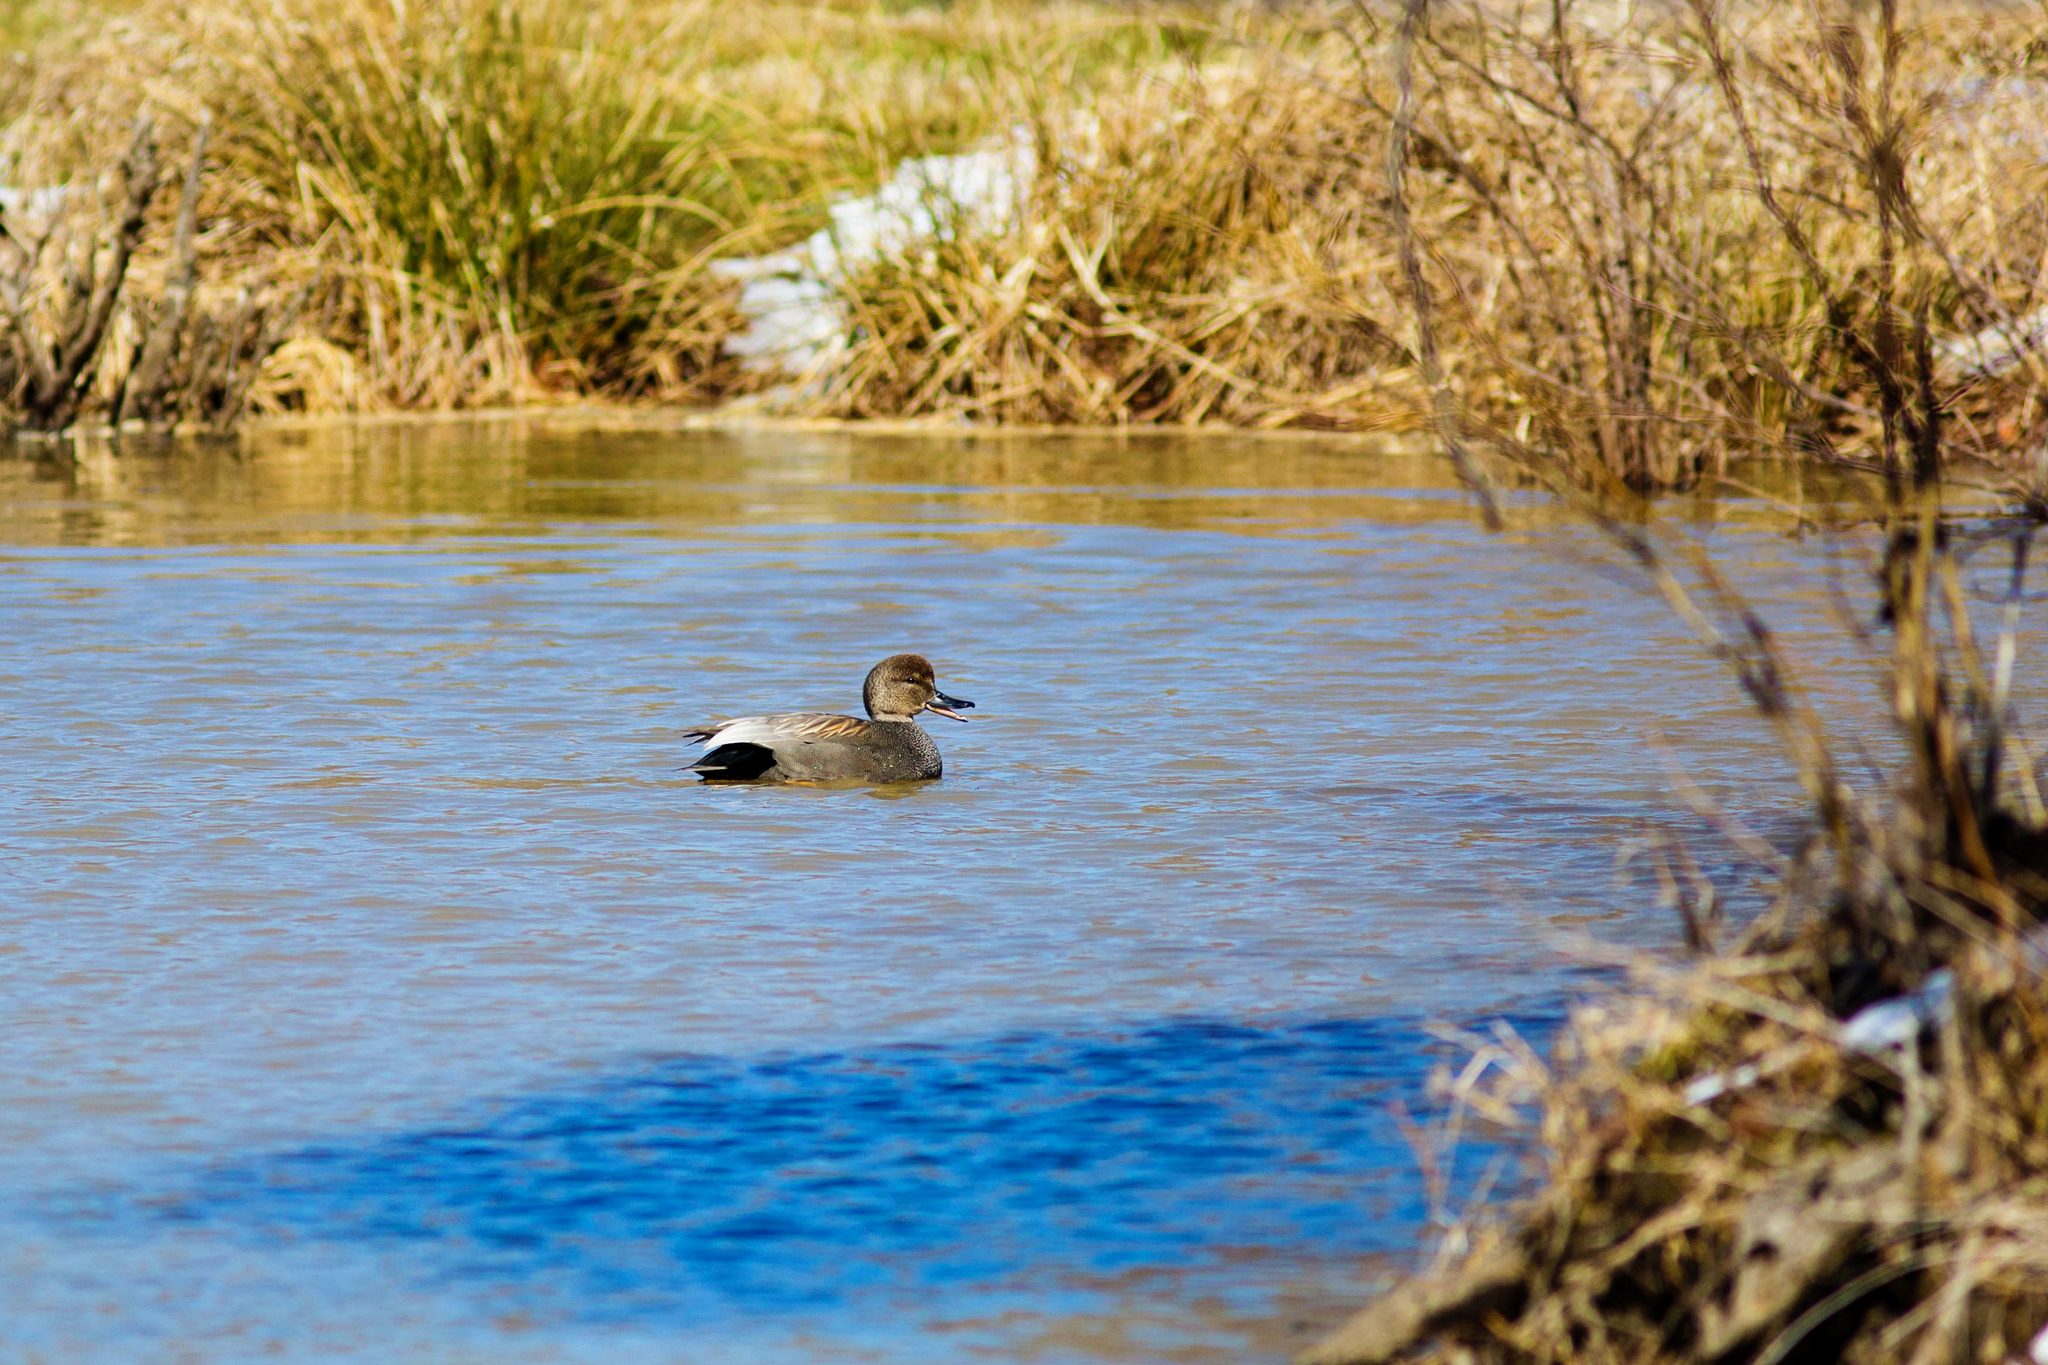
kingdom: Animalia
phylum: Chordata
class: Aves
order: Anseriformes
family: Anatidae
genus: Mareca
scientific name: Mareca strepera
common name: Gadwall
